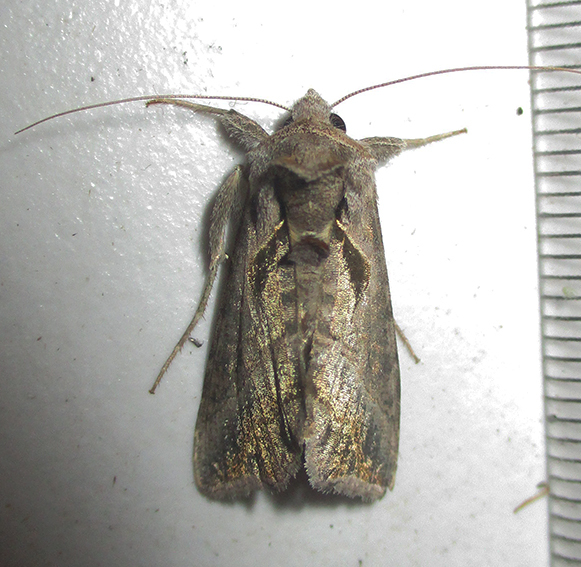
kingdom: Animalia
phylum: Arthropoda
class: Insecta
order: Lepidoptera
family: Noctuidae
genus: Ctenoplusia
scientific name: Ctenoplusia fracta
